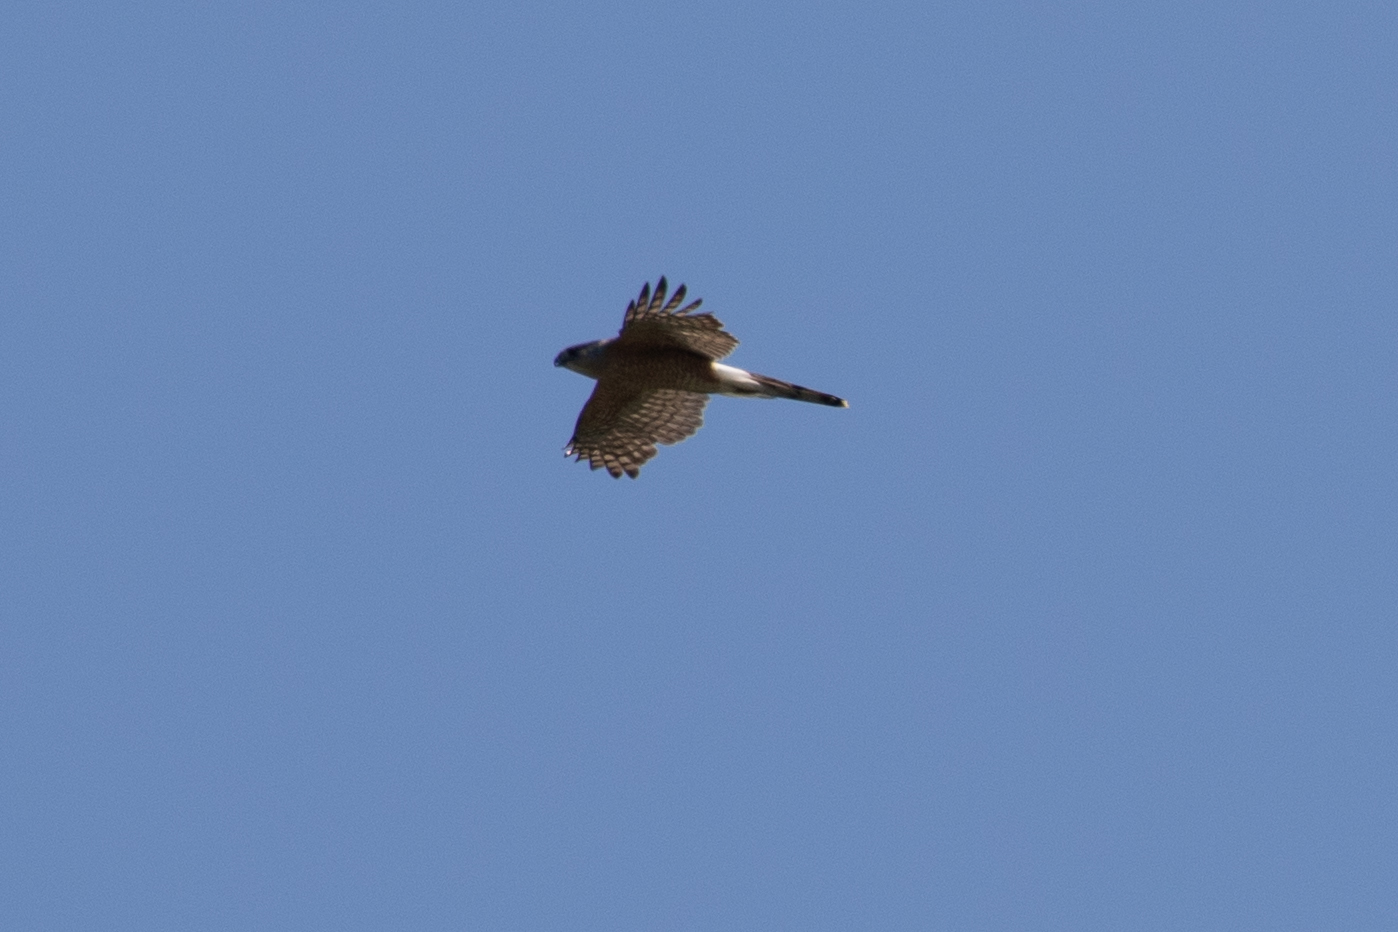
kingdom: Animalia
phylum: Chordata
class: Aves
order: Accipitriformes
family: Accipitridae
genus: Accipiter
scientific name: Accipiter cooperii
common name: Cooper's hawk
